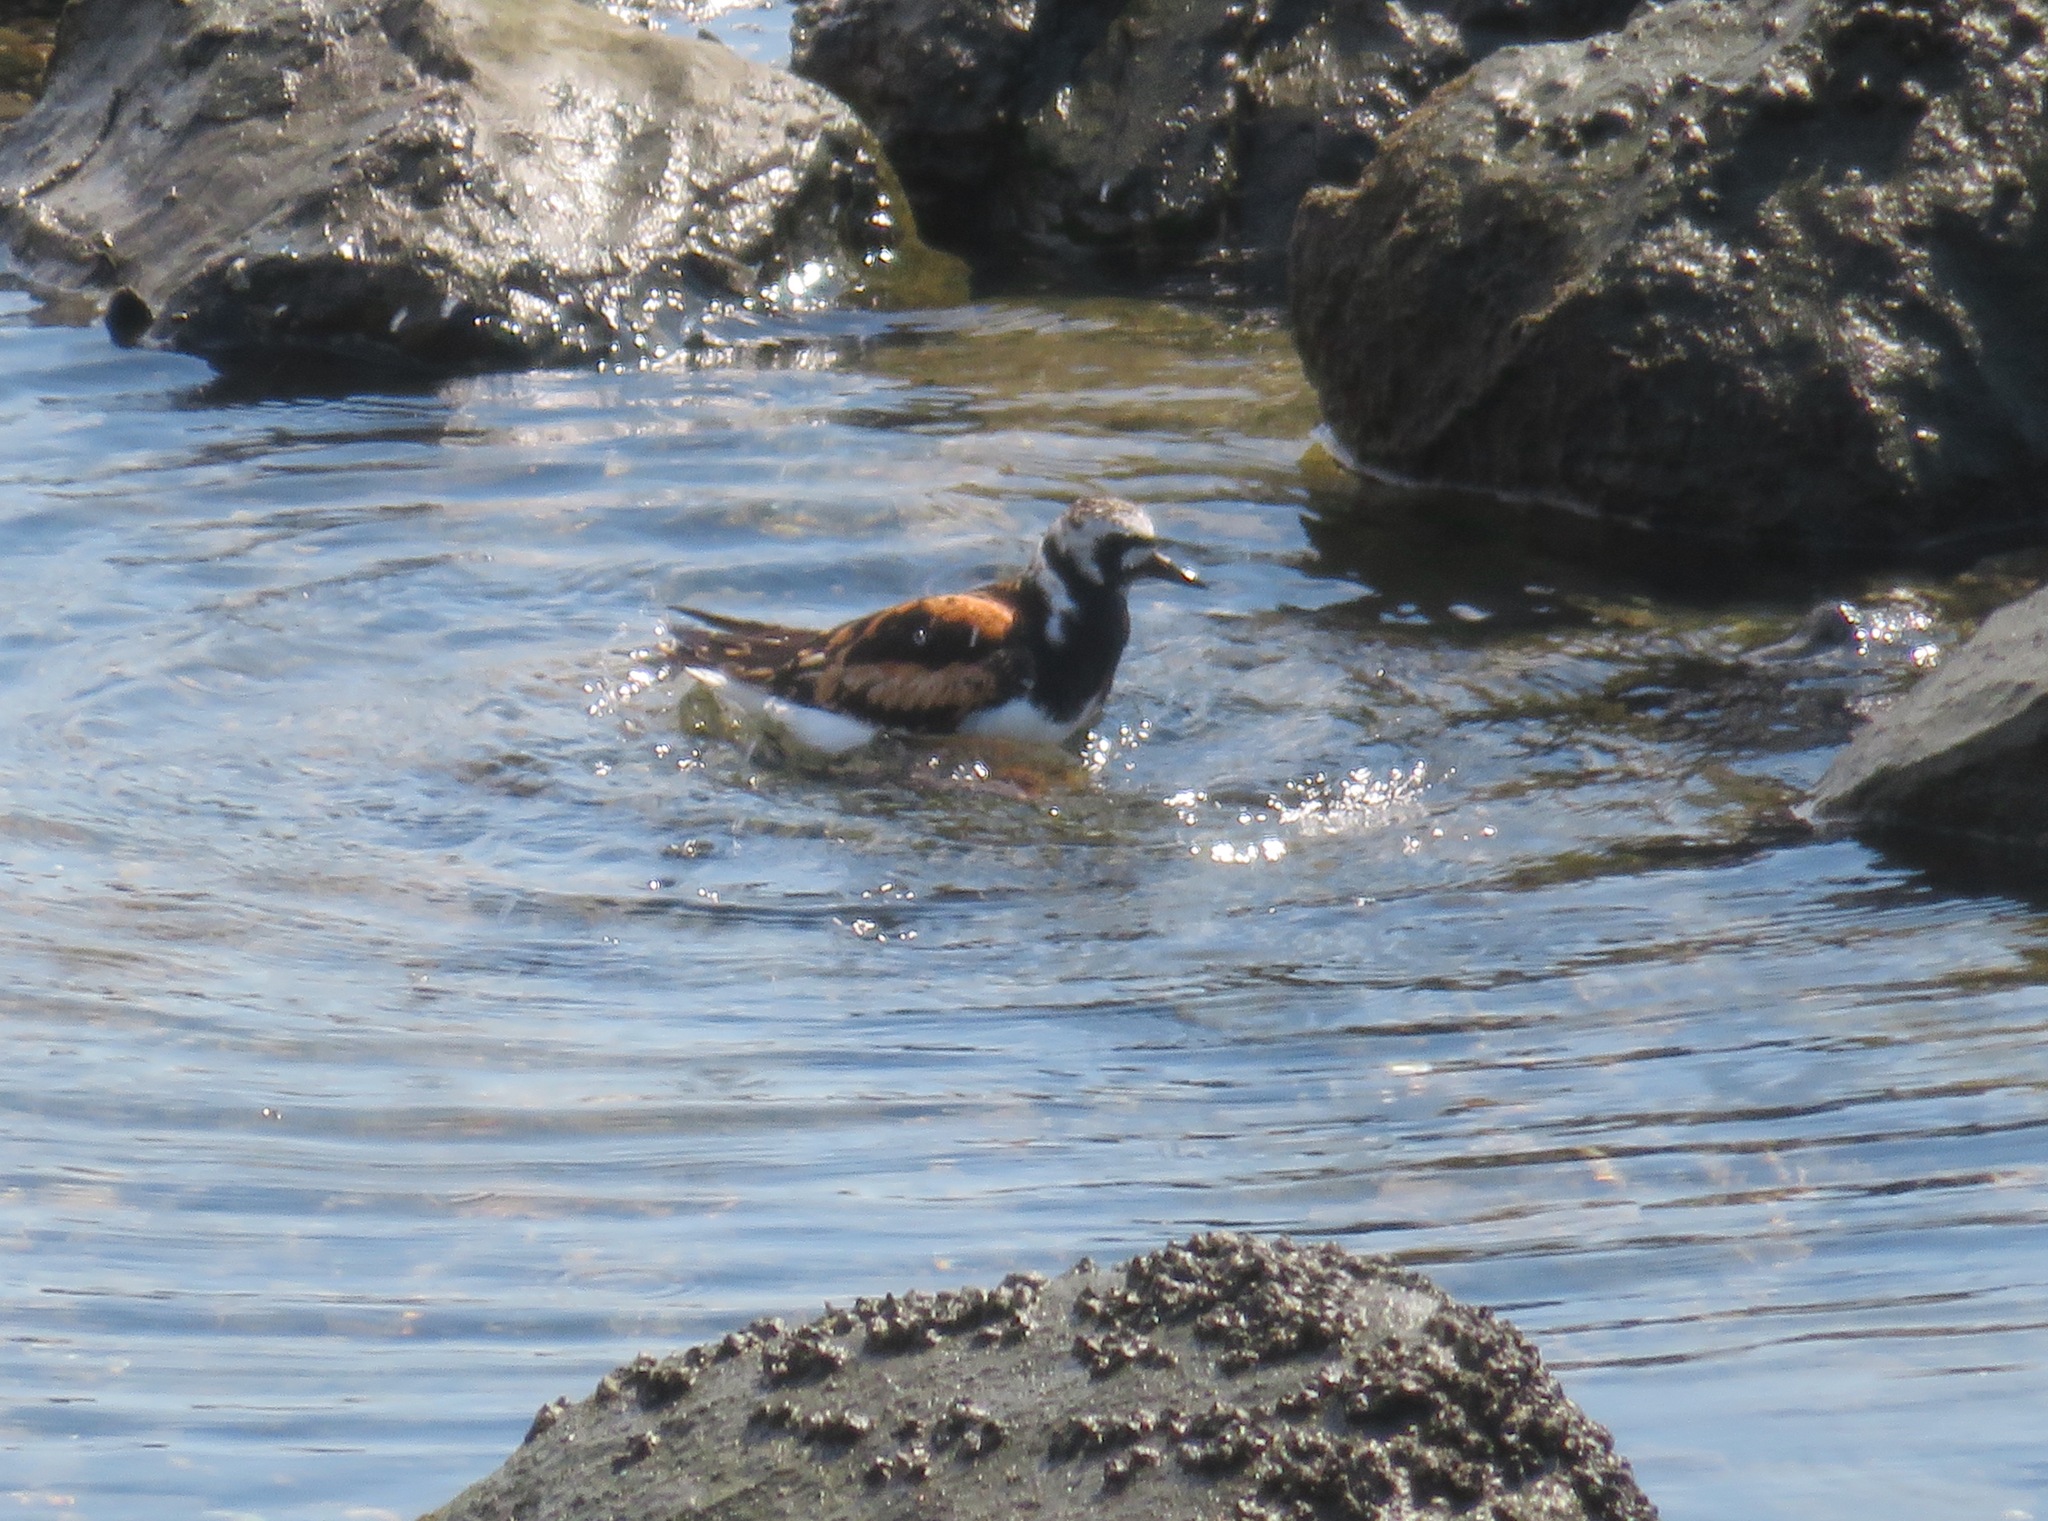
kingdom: Animalia
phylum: Chordata
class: Aves
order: Charadriiformes
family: Scolopacidae
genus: Arenaria
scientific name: Arenaria interpres
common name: Ruddy turnstone
